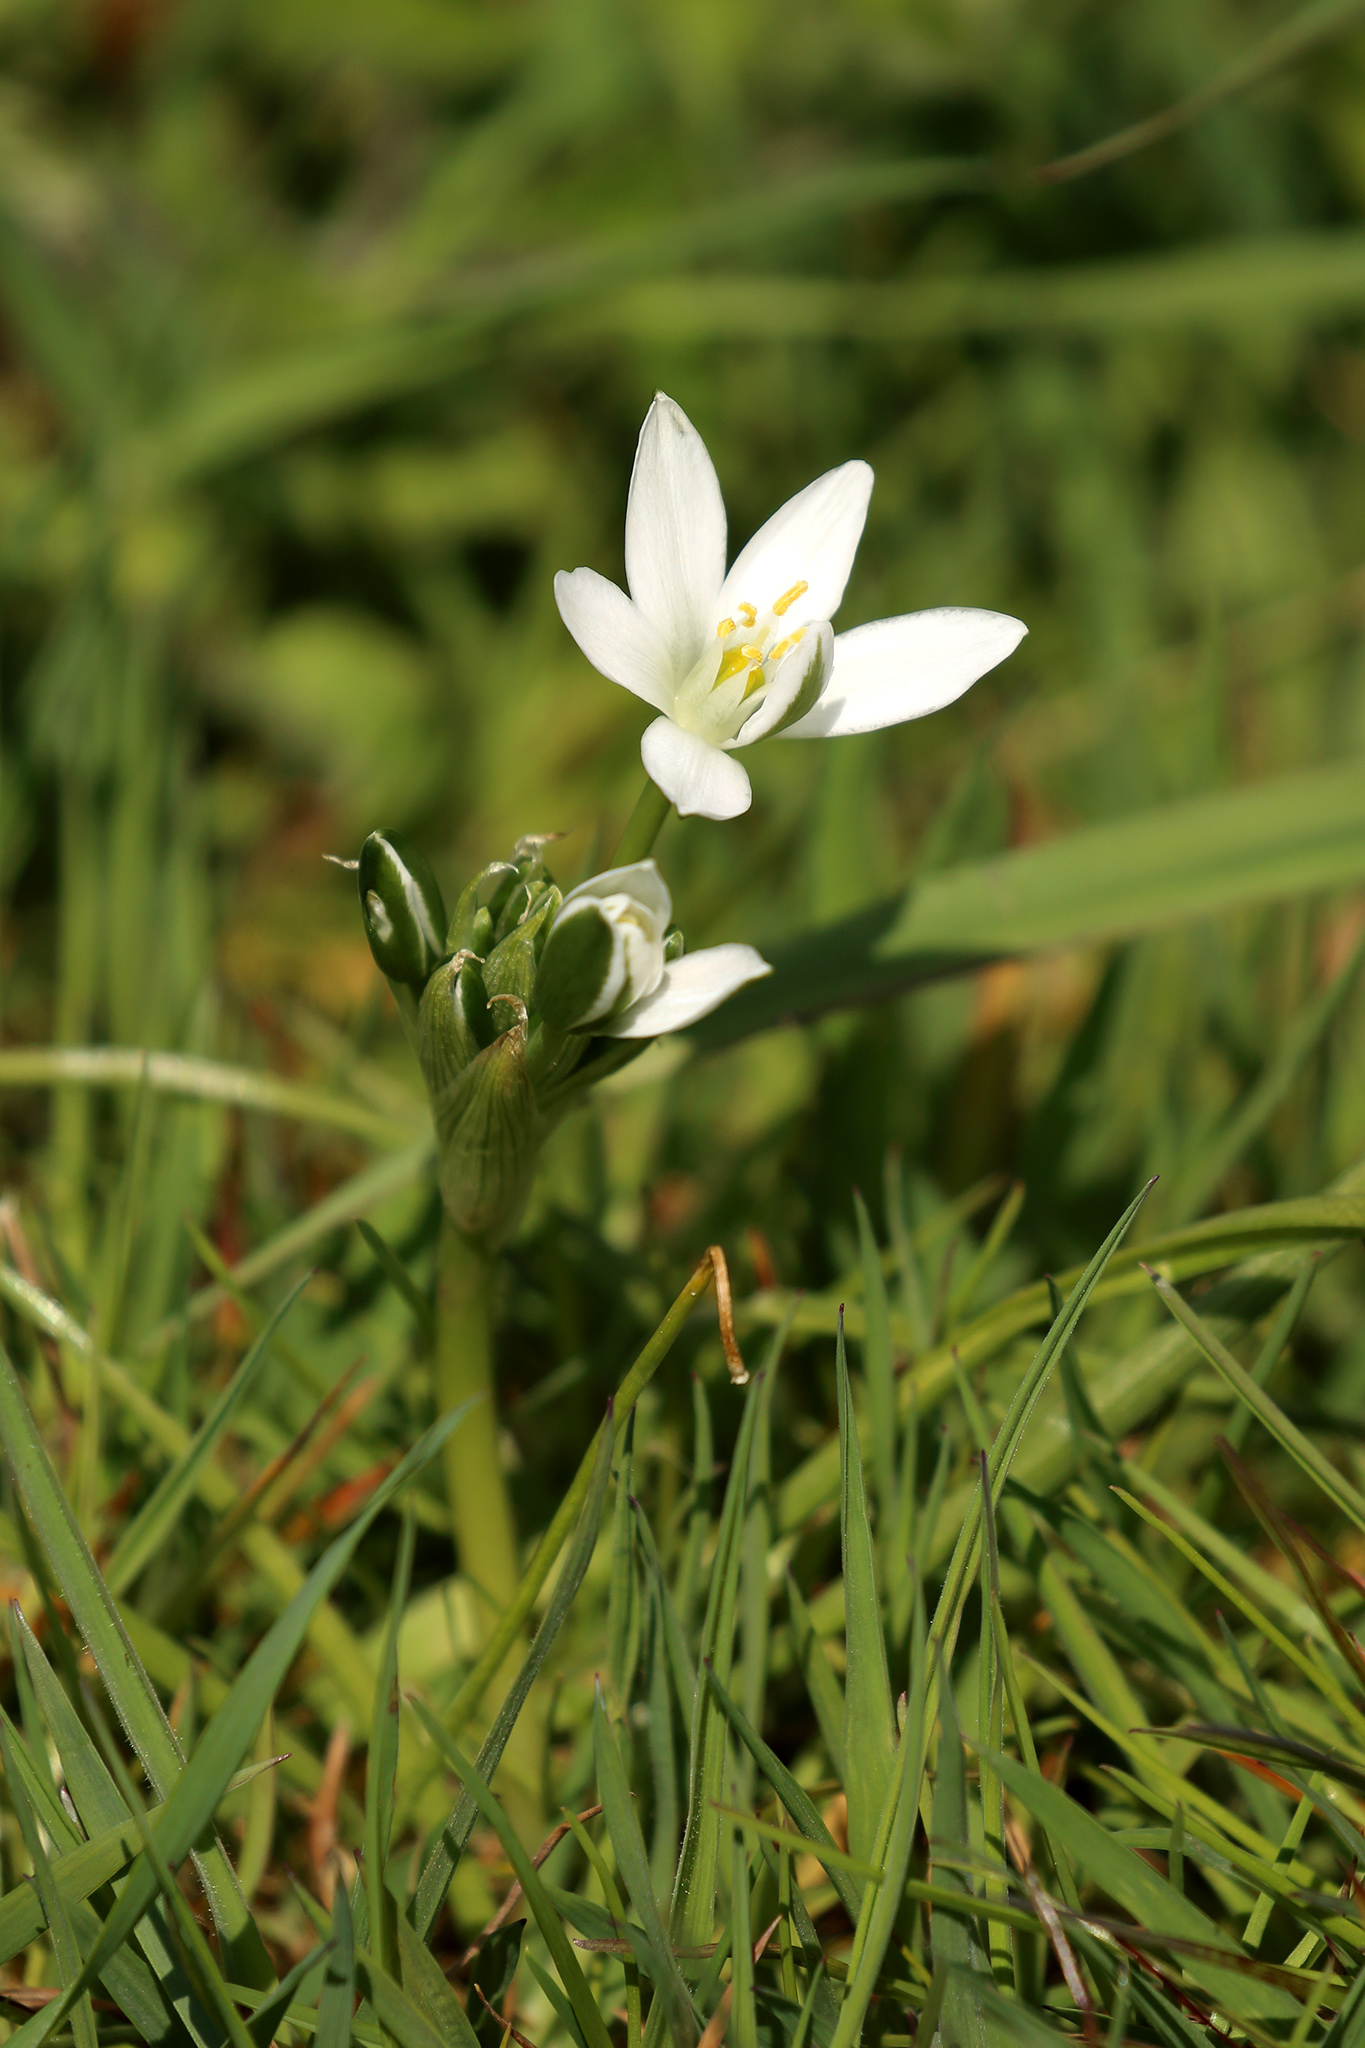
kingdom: Plantae
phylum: Tracheophyta
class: Liliopsida
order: Asparagales
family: Asparagaceae
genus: Ornithogalum
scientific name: Ornithogalum umbellatum
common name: Garden star-of-bethlehem
